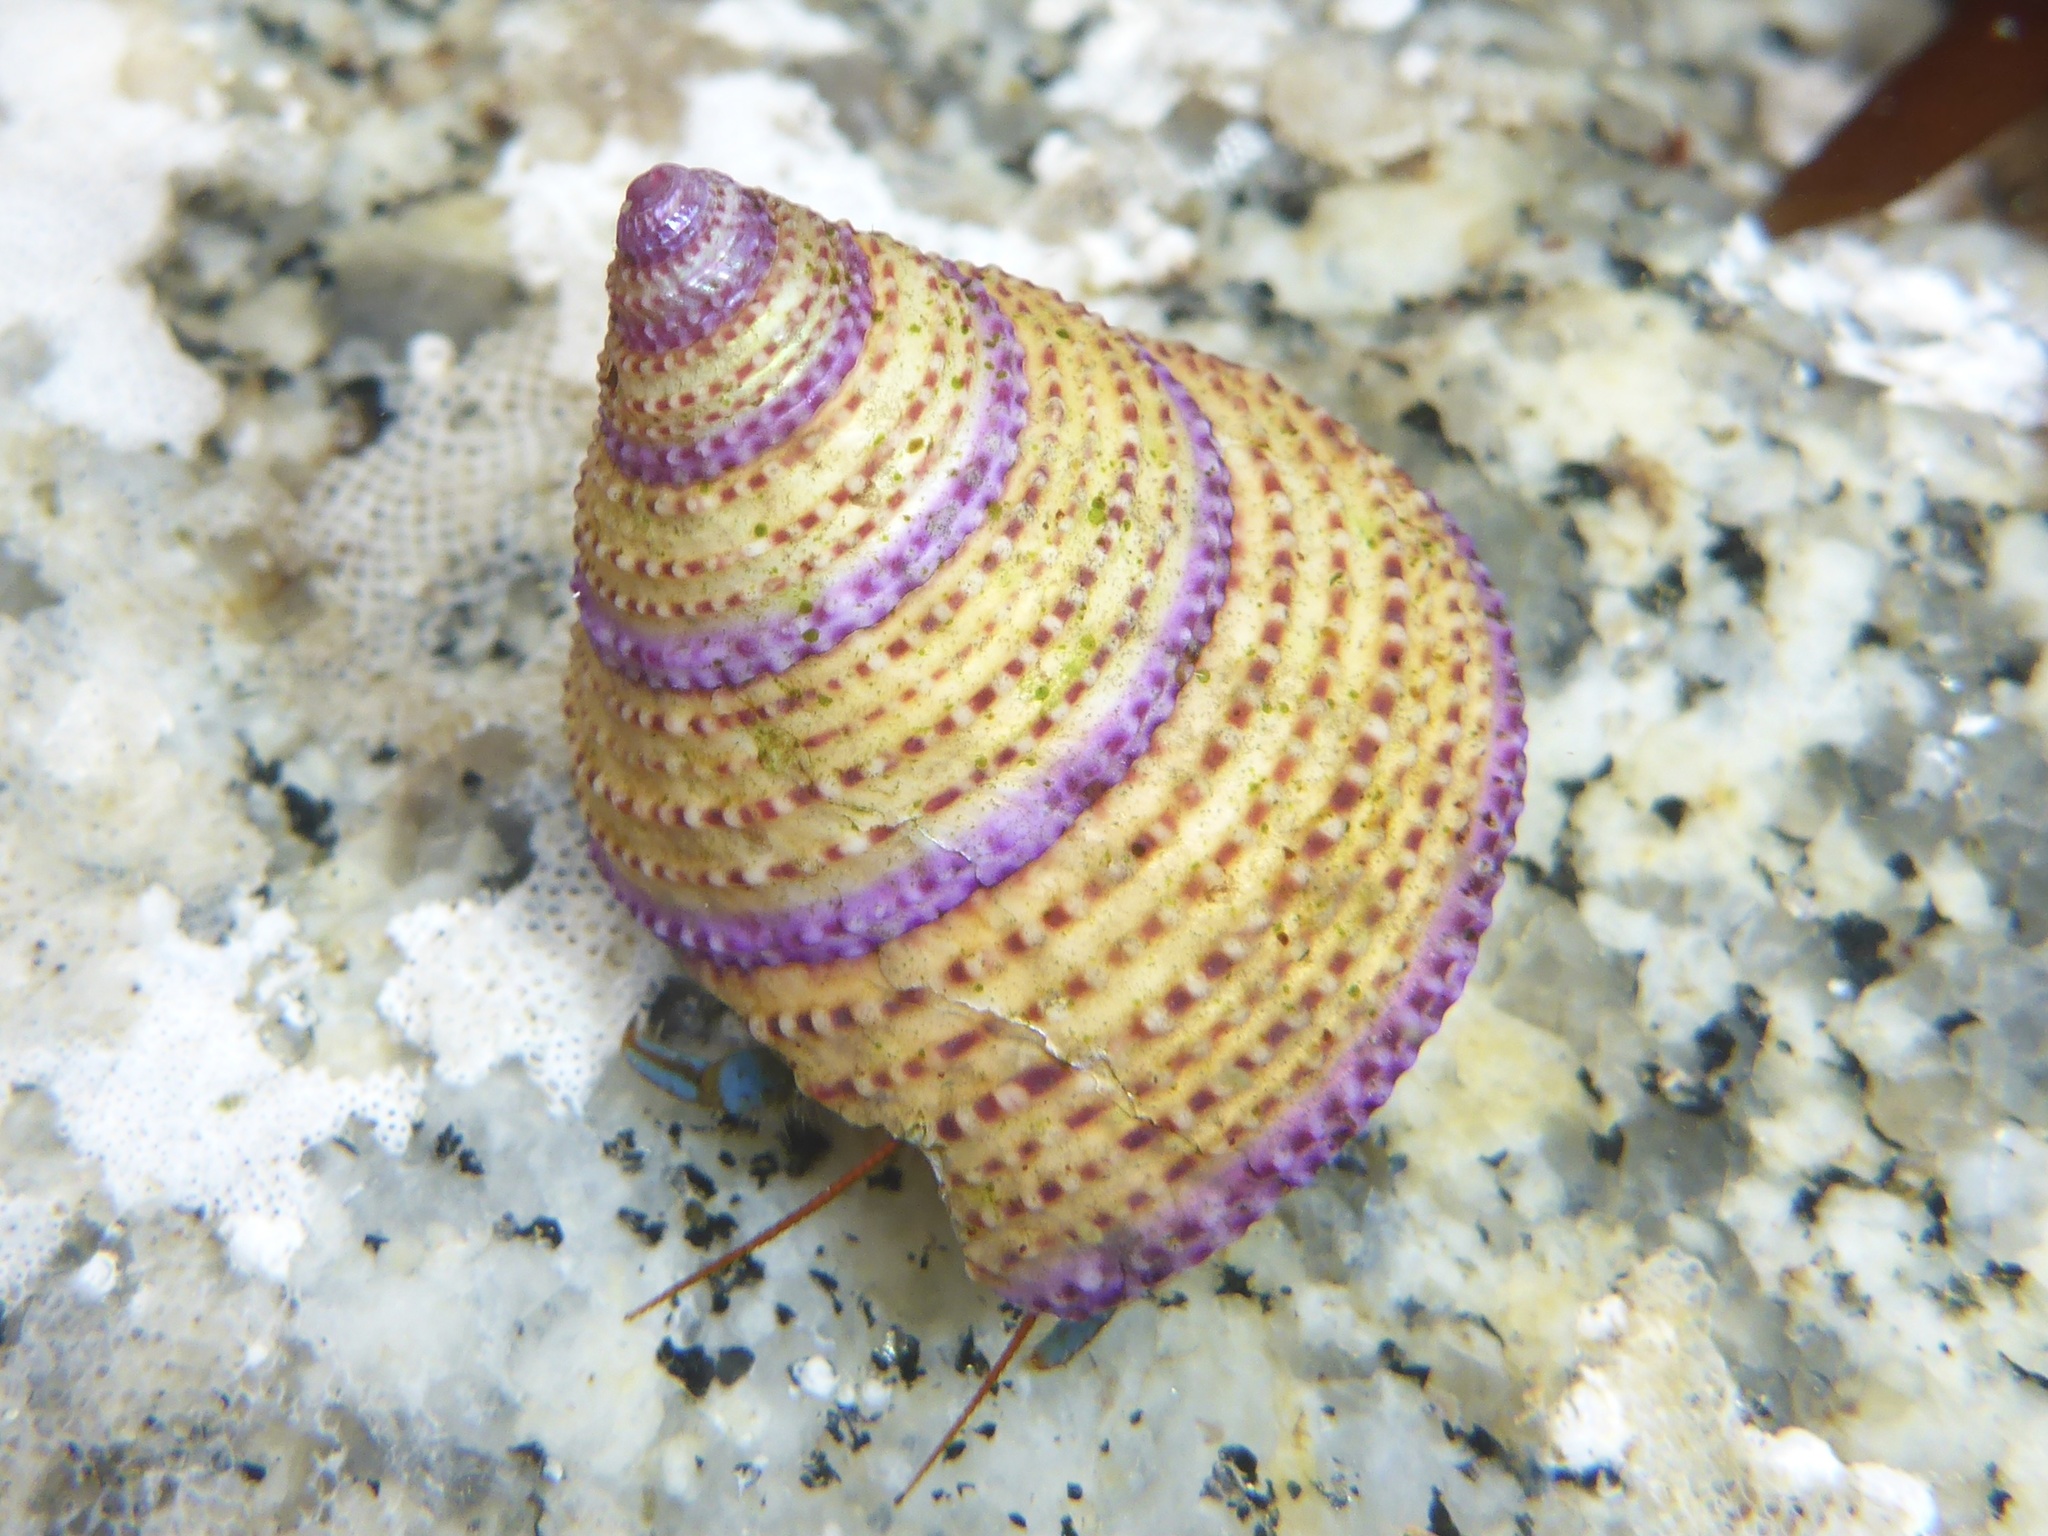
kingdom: Animalia
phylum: Mollusca
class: Gastropoda
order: Trochida
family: Calliostomatidae
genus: Calliostoma
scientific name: Calliostoma annulatum
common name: Blue-ring topsnail
